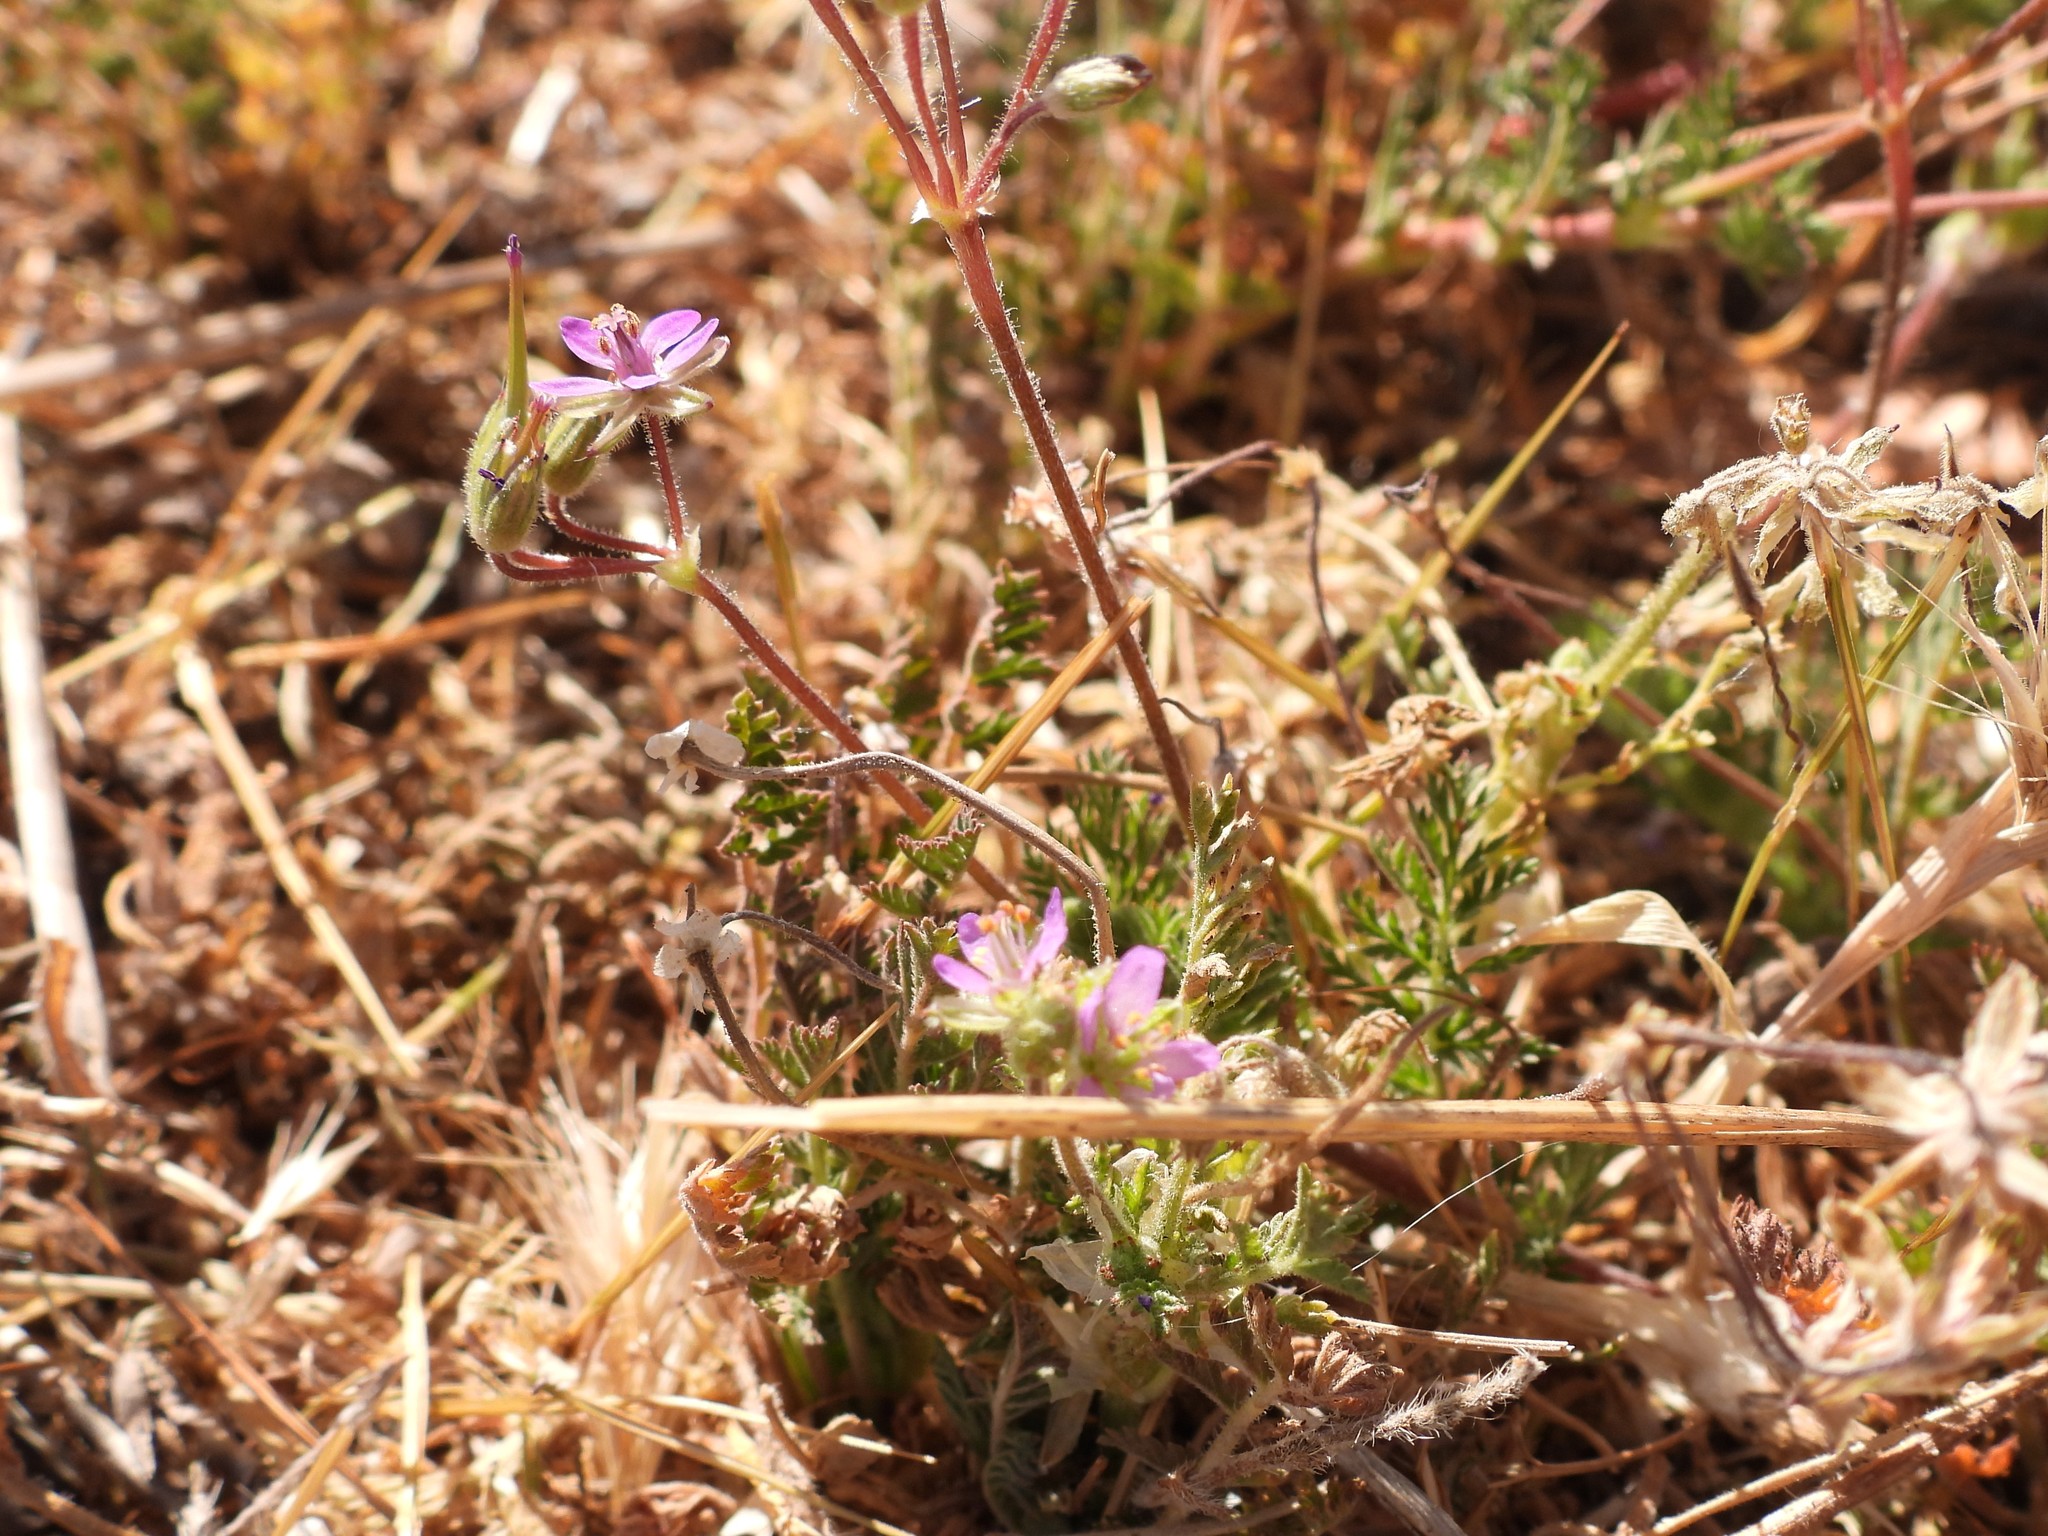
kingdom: Plantae
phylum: Tracheophyta
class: Magnoliopsida
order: Geraniales
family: Geraniaceae
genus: Erodium
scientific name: Erodium cicutarium
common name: Common stork's-bill
